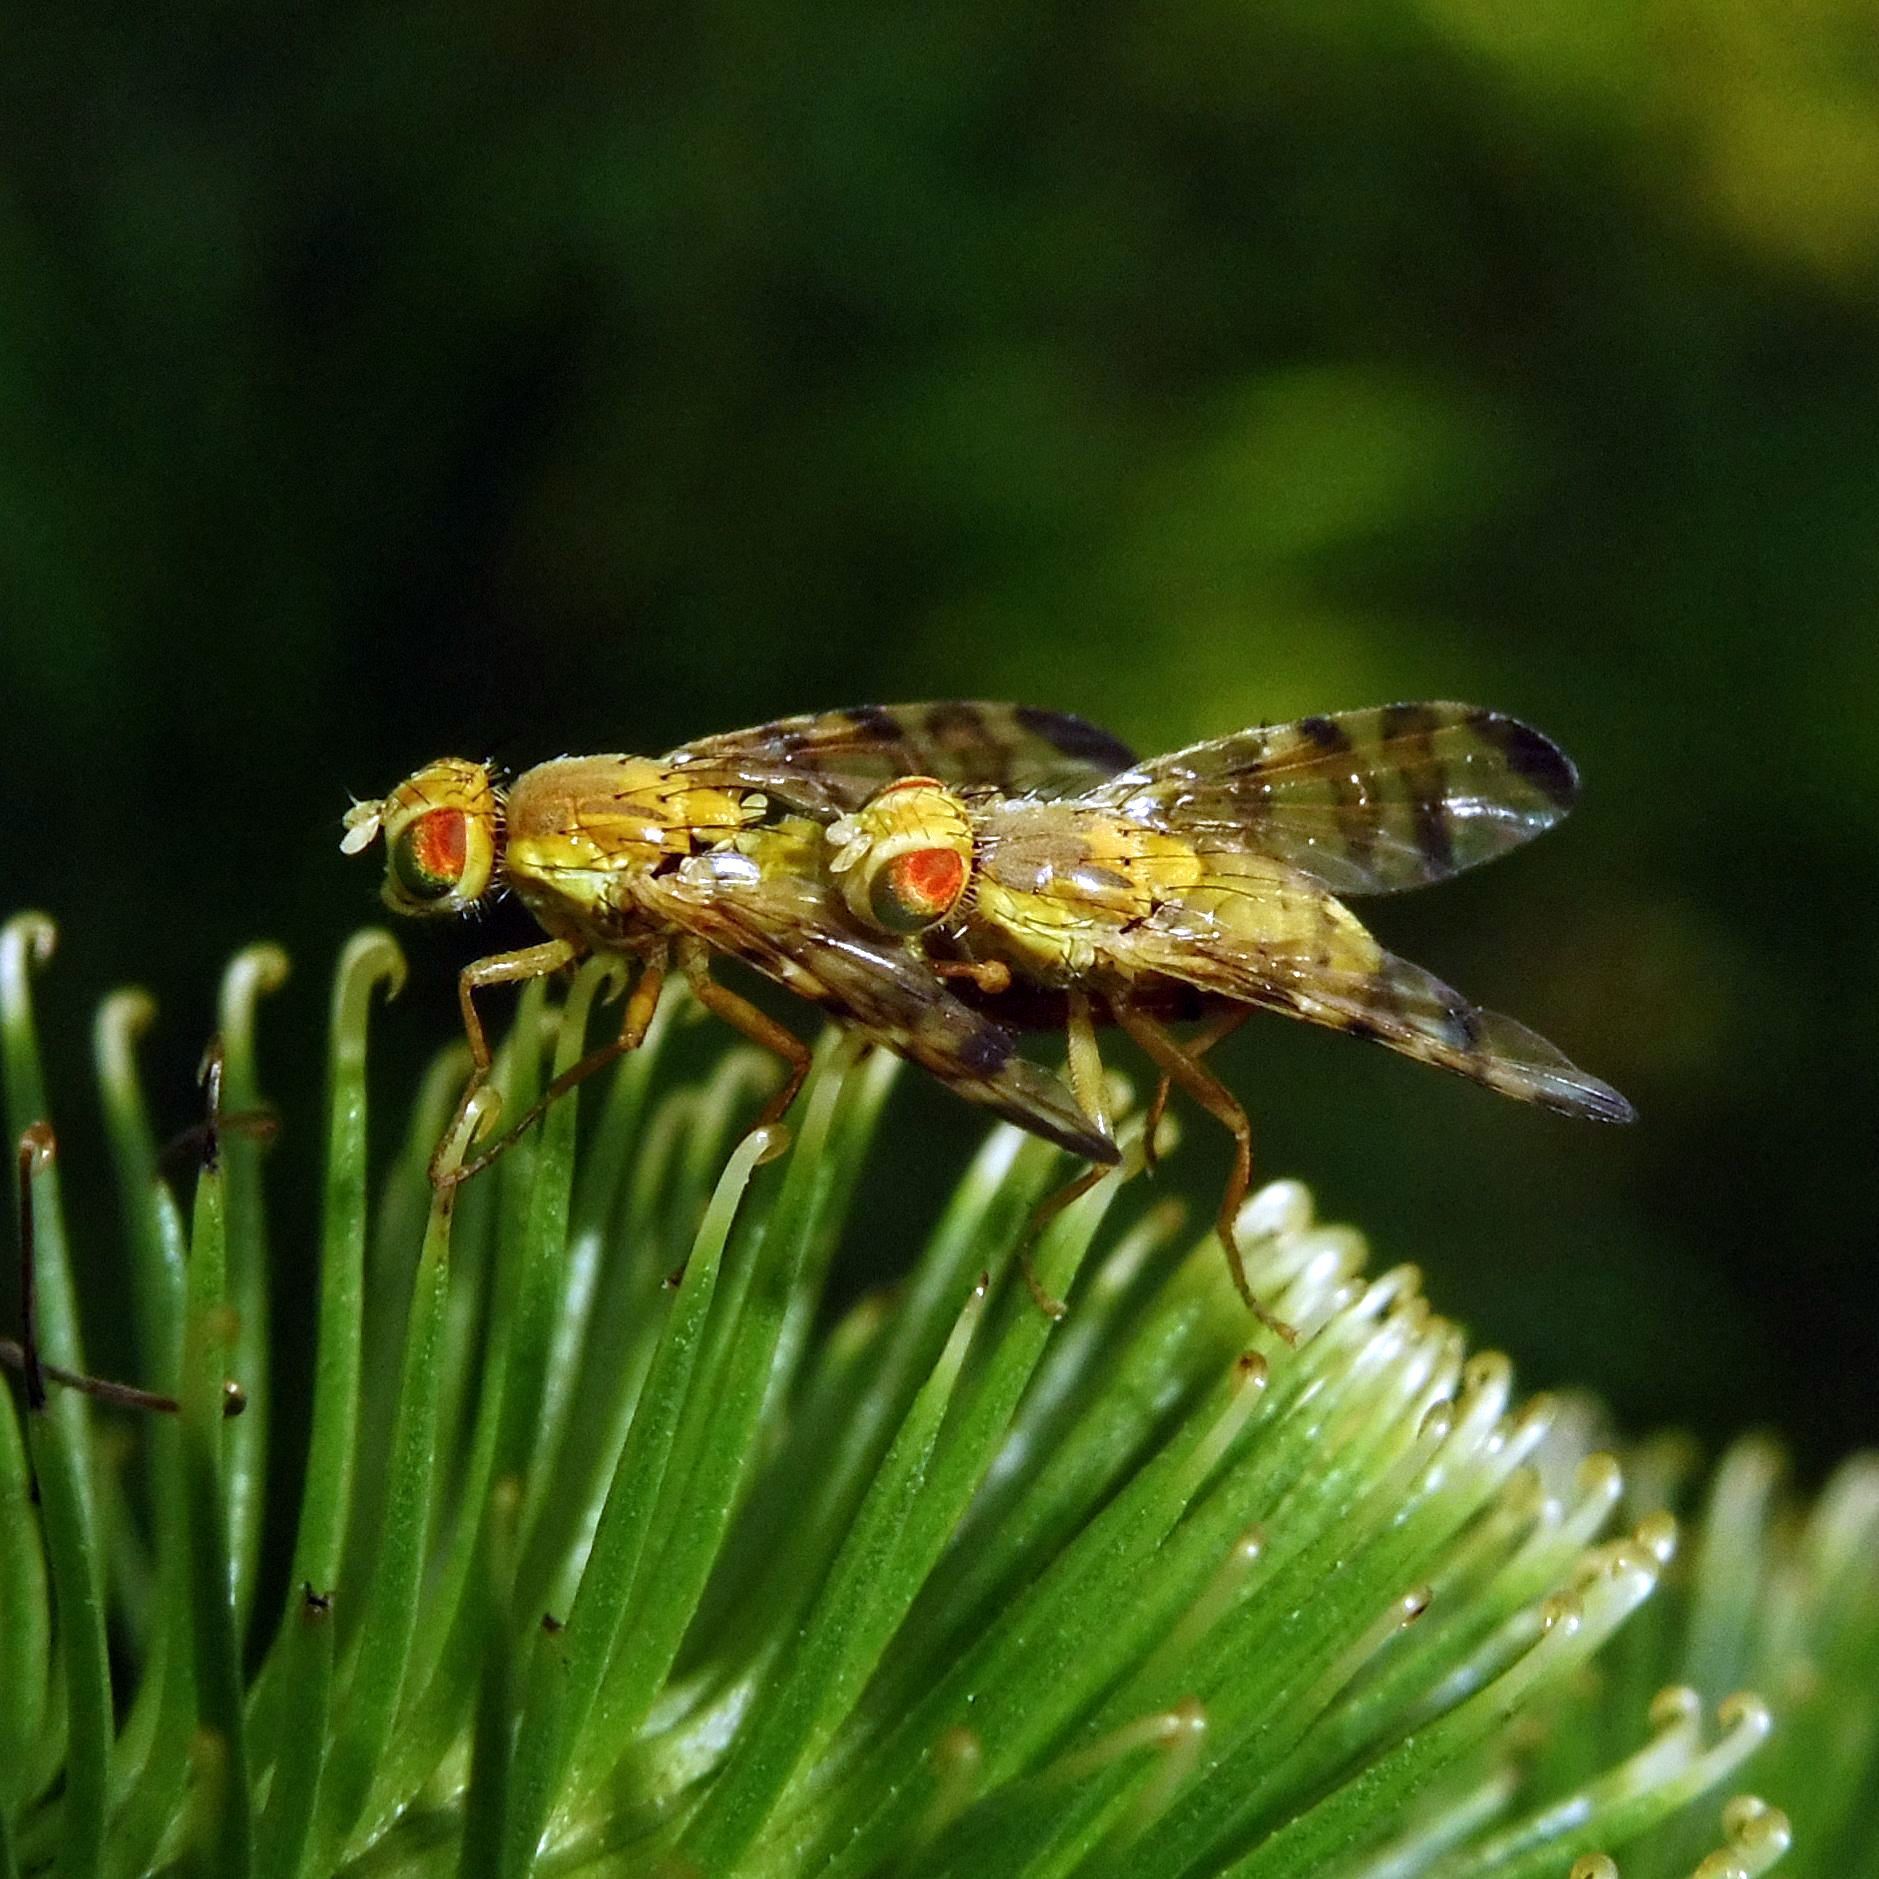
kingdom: Animalia
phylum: Arthropoda
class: Insecta
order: Diptera
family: Tephritidae
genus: Terellia
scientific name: Terellia tussilaginis
